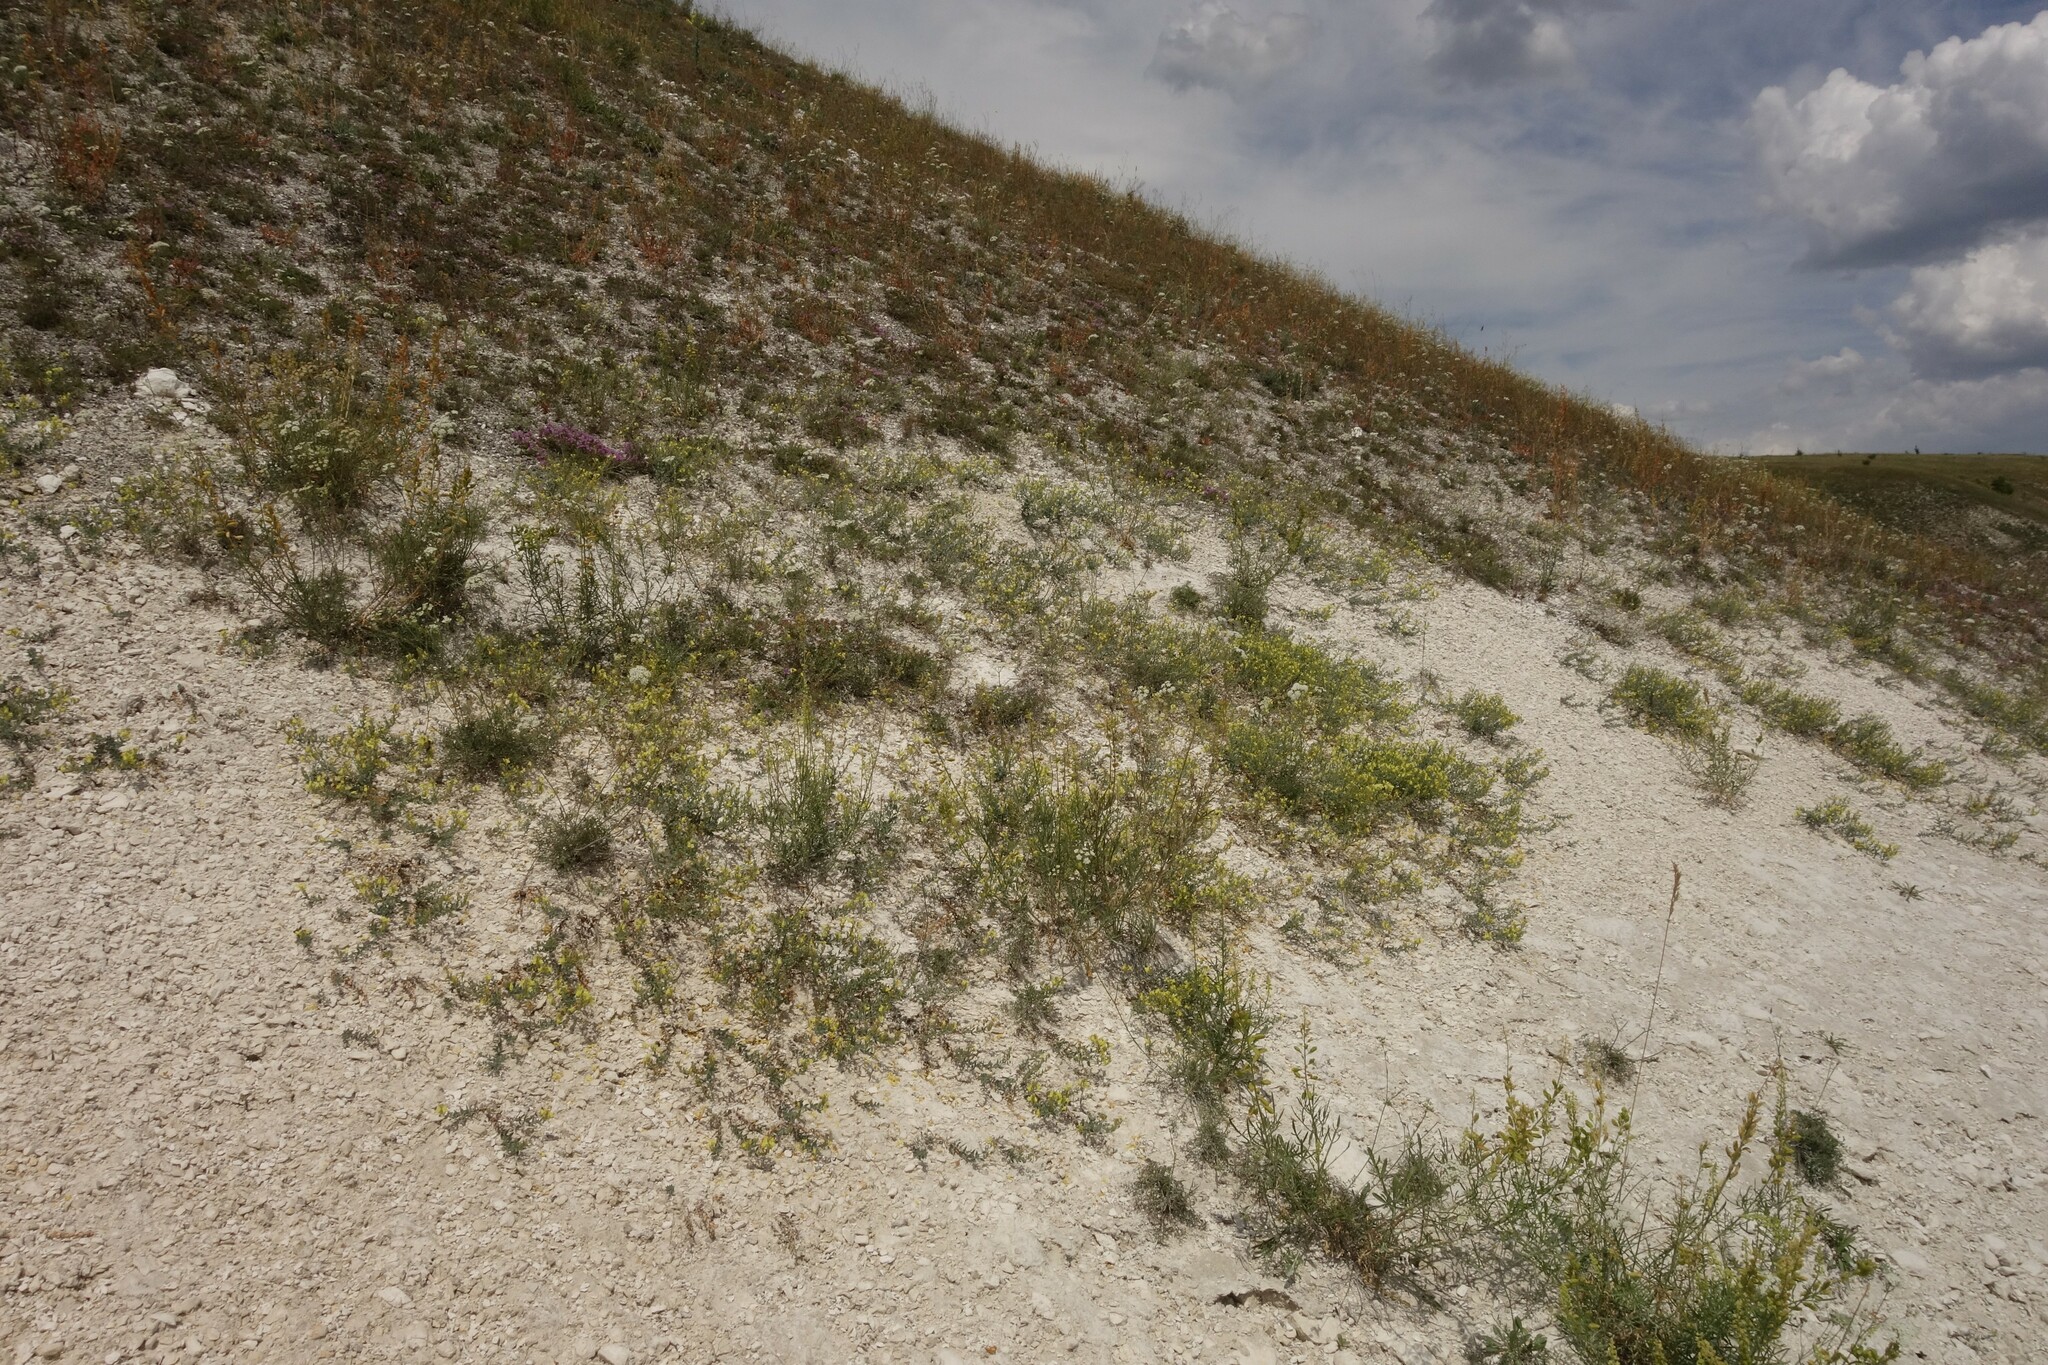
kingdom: Plantae
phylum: Tracheophyta
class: Magnoliopsida
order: Lamiales
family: Plantaginaceae
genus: Linaria
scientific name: Linaria cretacea
